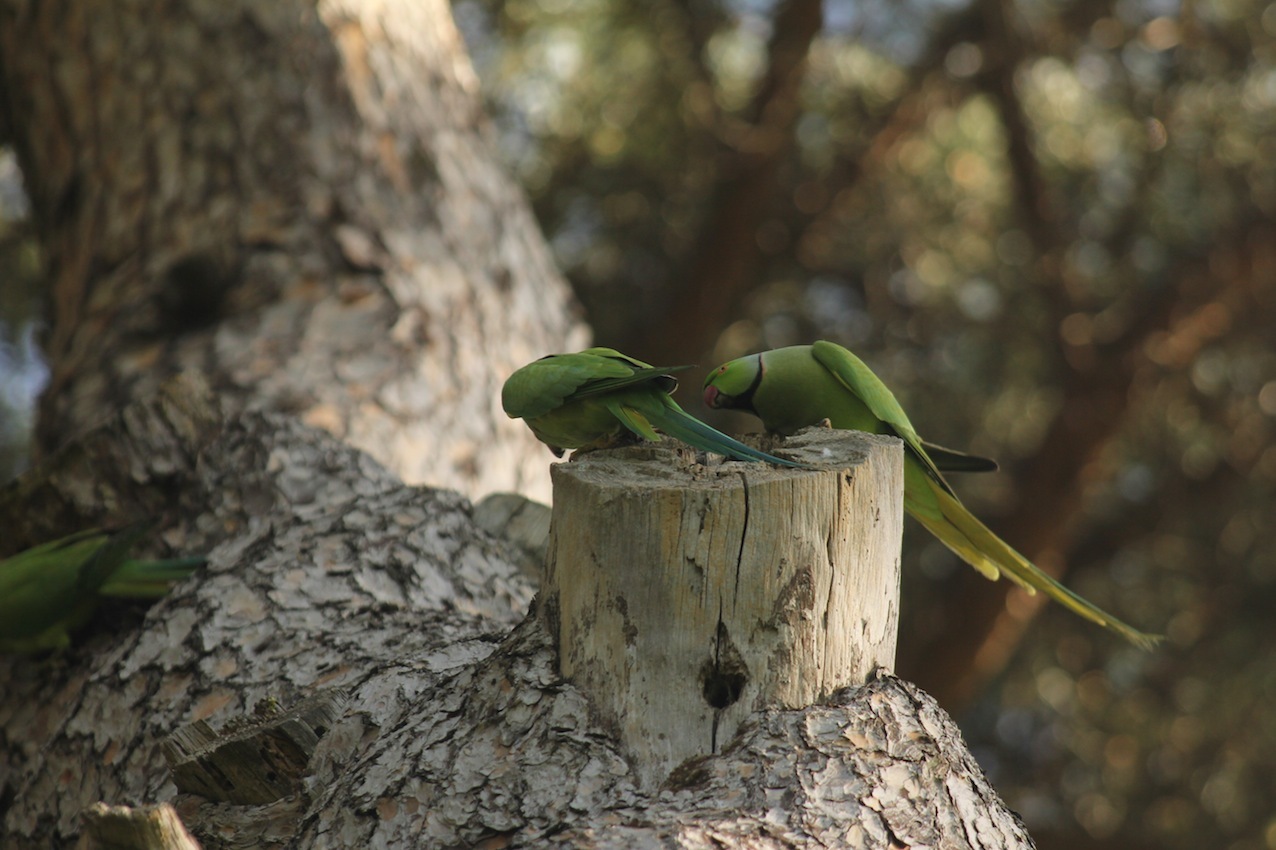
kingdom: Animalia
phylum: Chordata
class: Aves
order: Psittaciformes
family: Psittacidae
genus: Psittacula
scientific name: Psittacula krameri
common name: Rose-ringed parakeet
